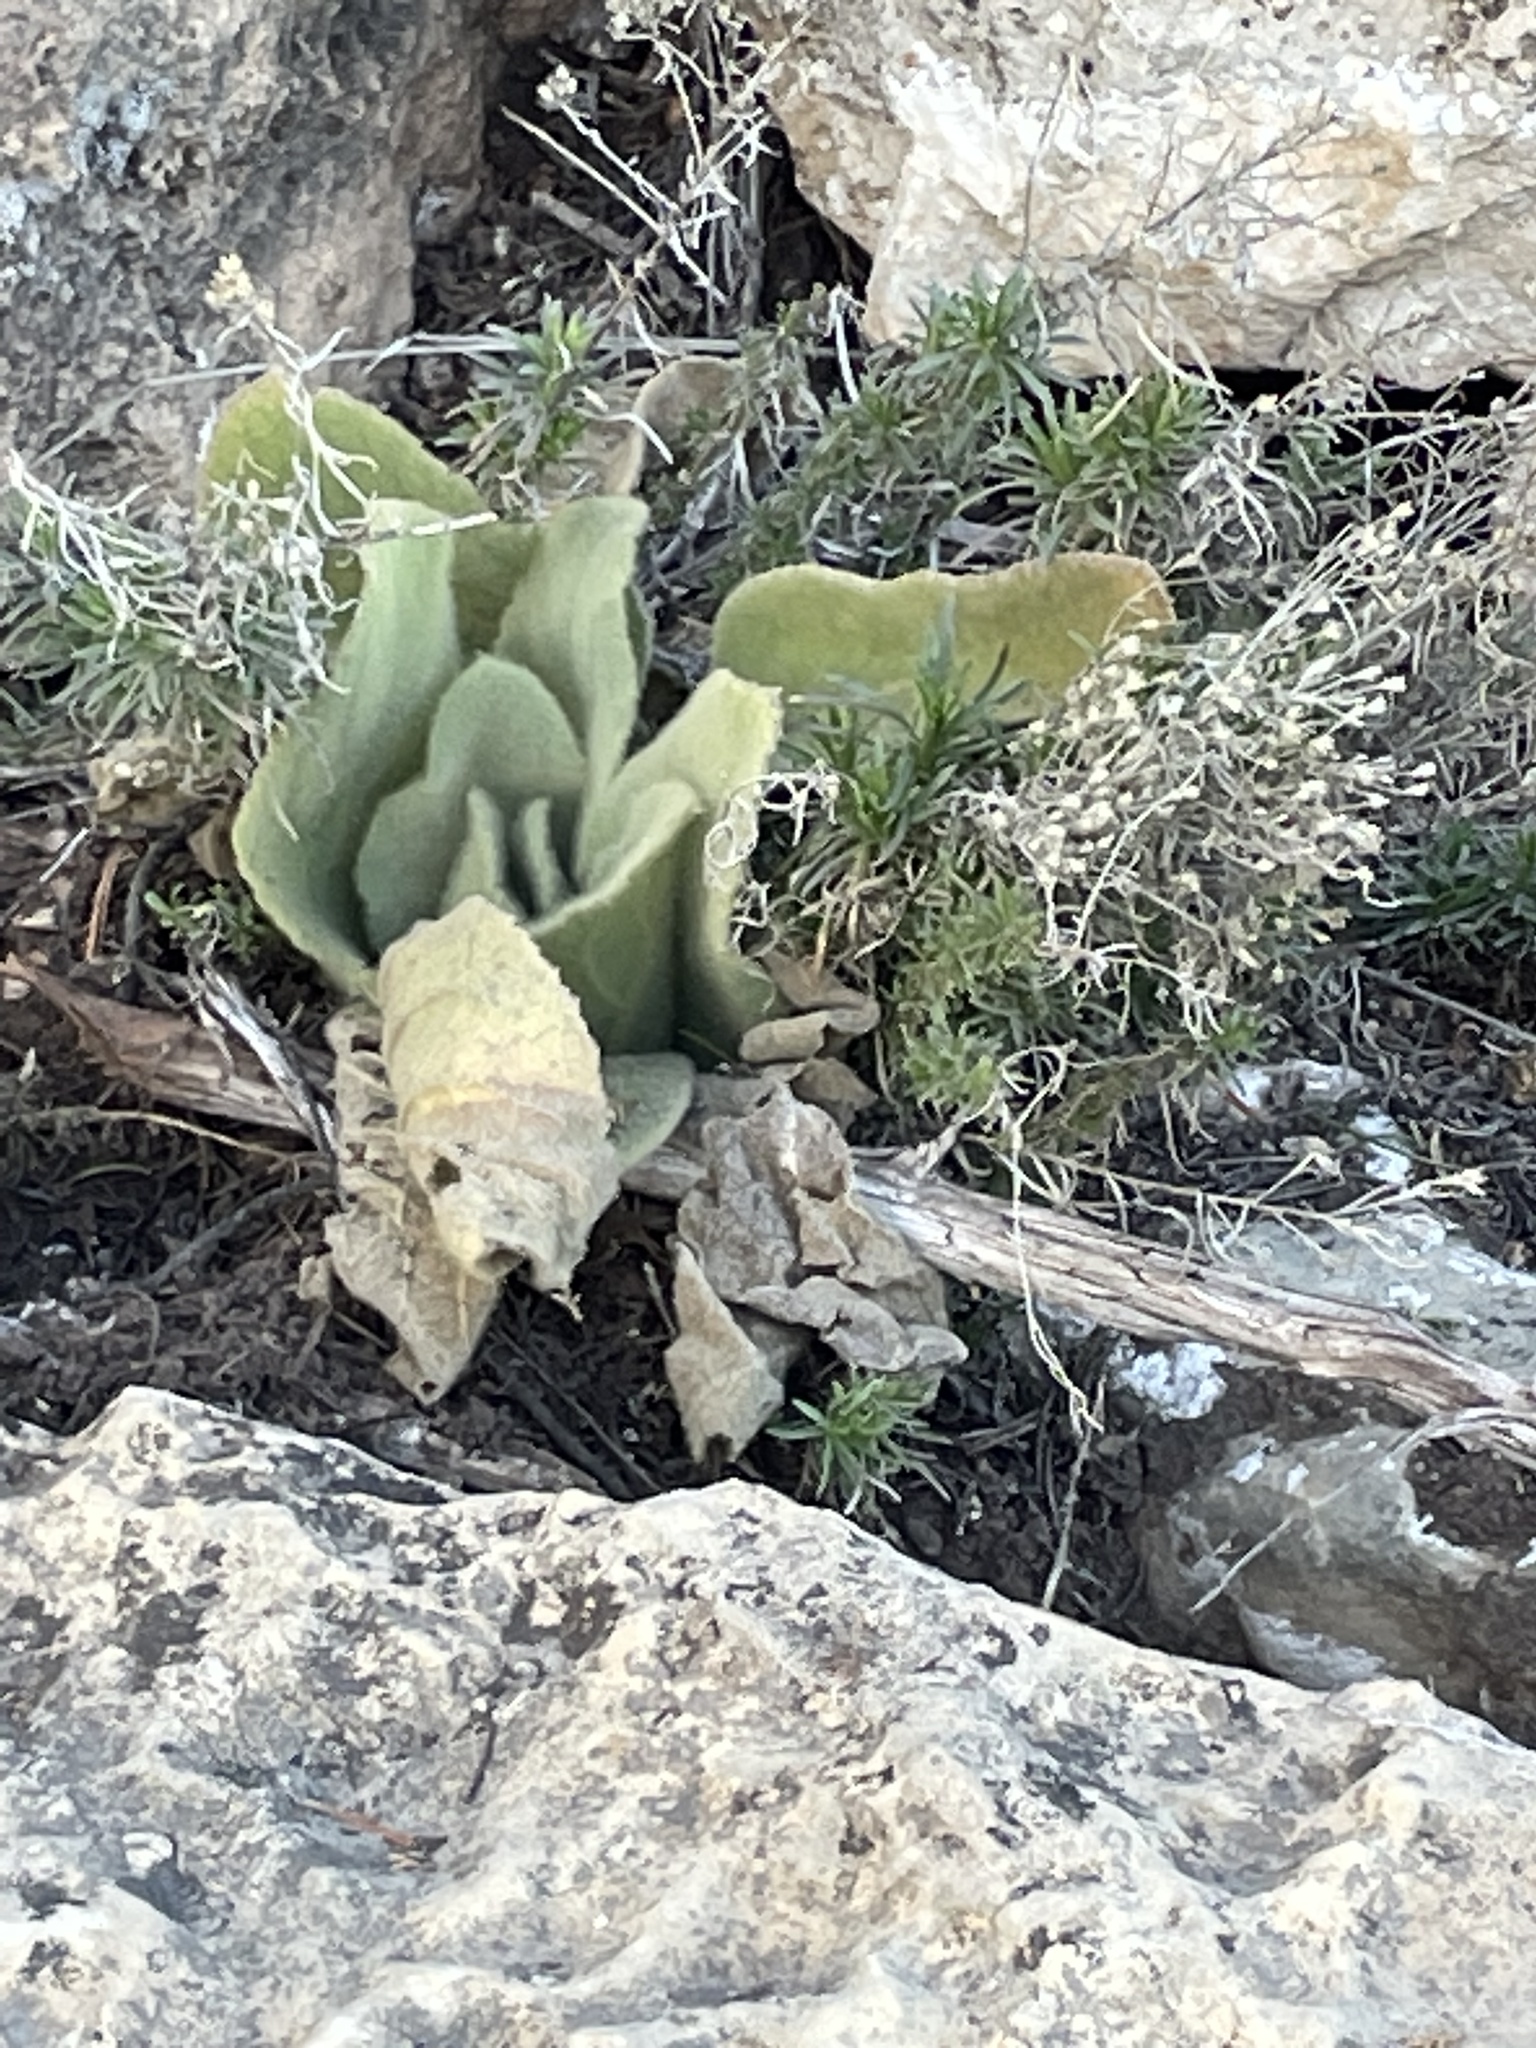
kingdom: Plantae
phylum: Tracheophyta
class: Magnoliopsida
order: Lamiales
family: Scrophulariaceae
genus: Verbascum
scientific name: Verbascum thapsus
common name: Common mullein
